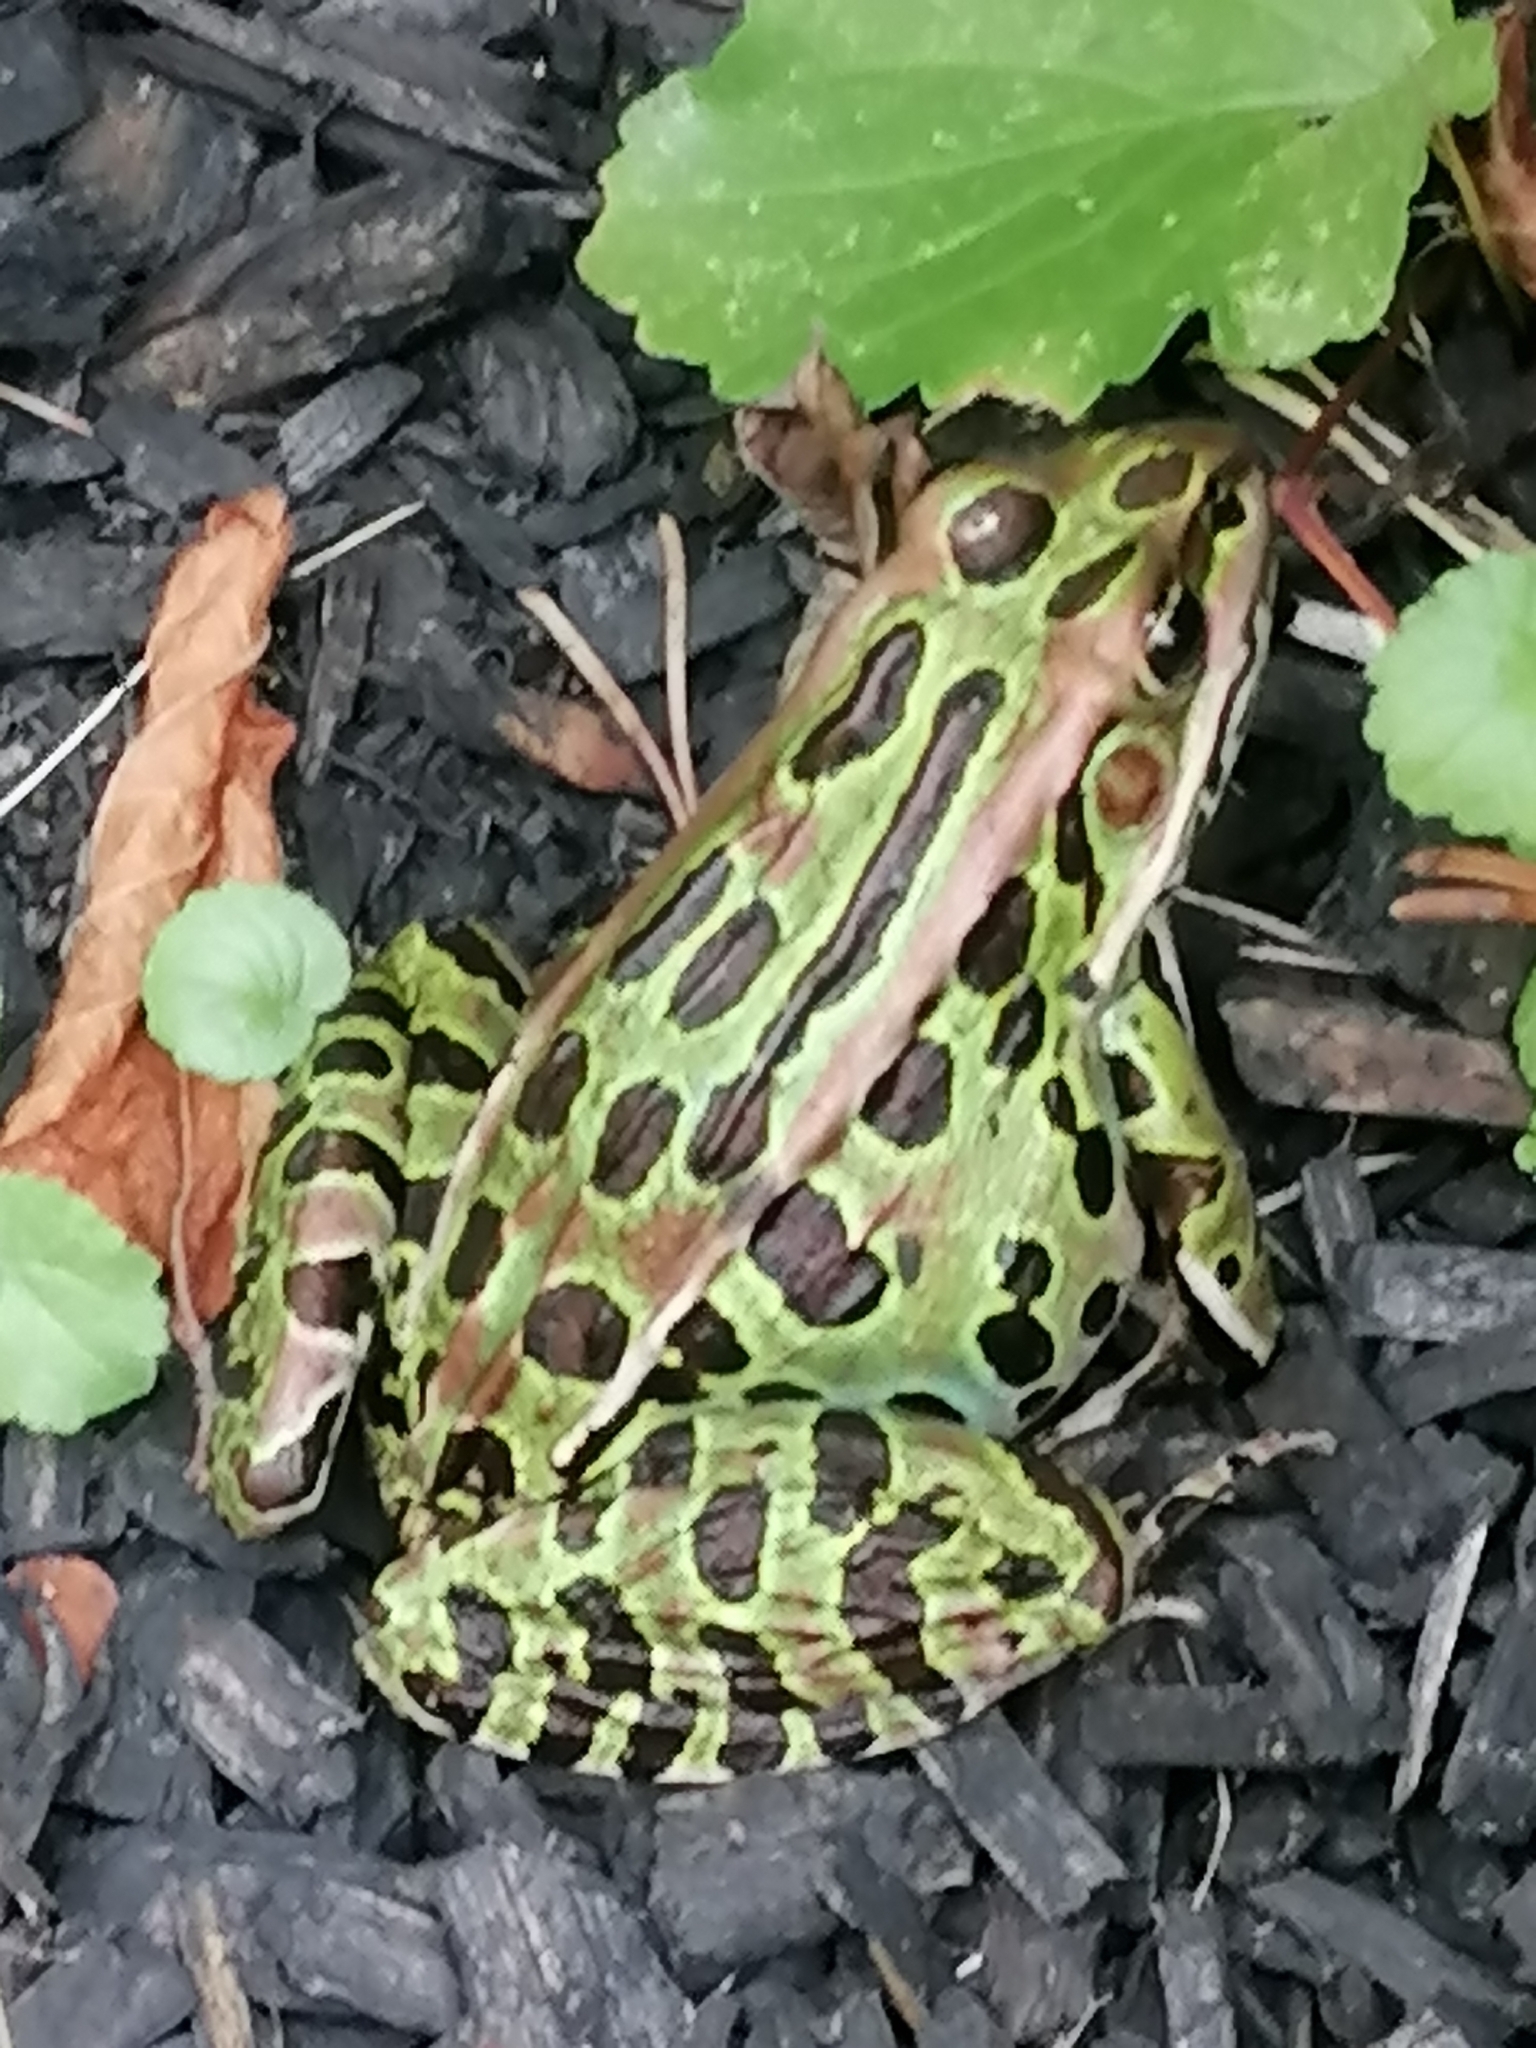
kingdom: Animalia
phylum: Chordata
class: Amphibia
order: Anura
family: Ranidae
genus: Lithobates
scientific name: Lithobates pipiens
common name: Northern leopard frog
